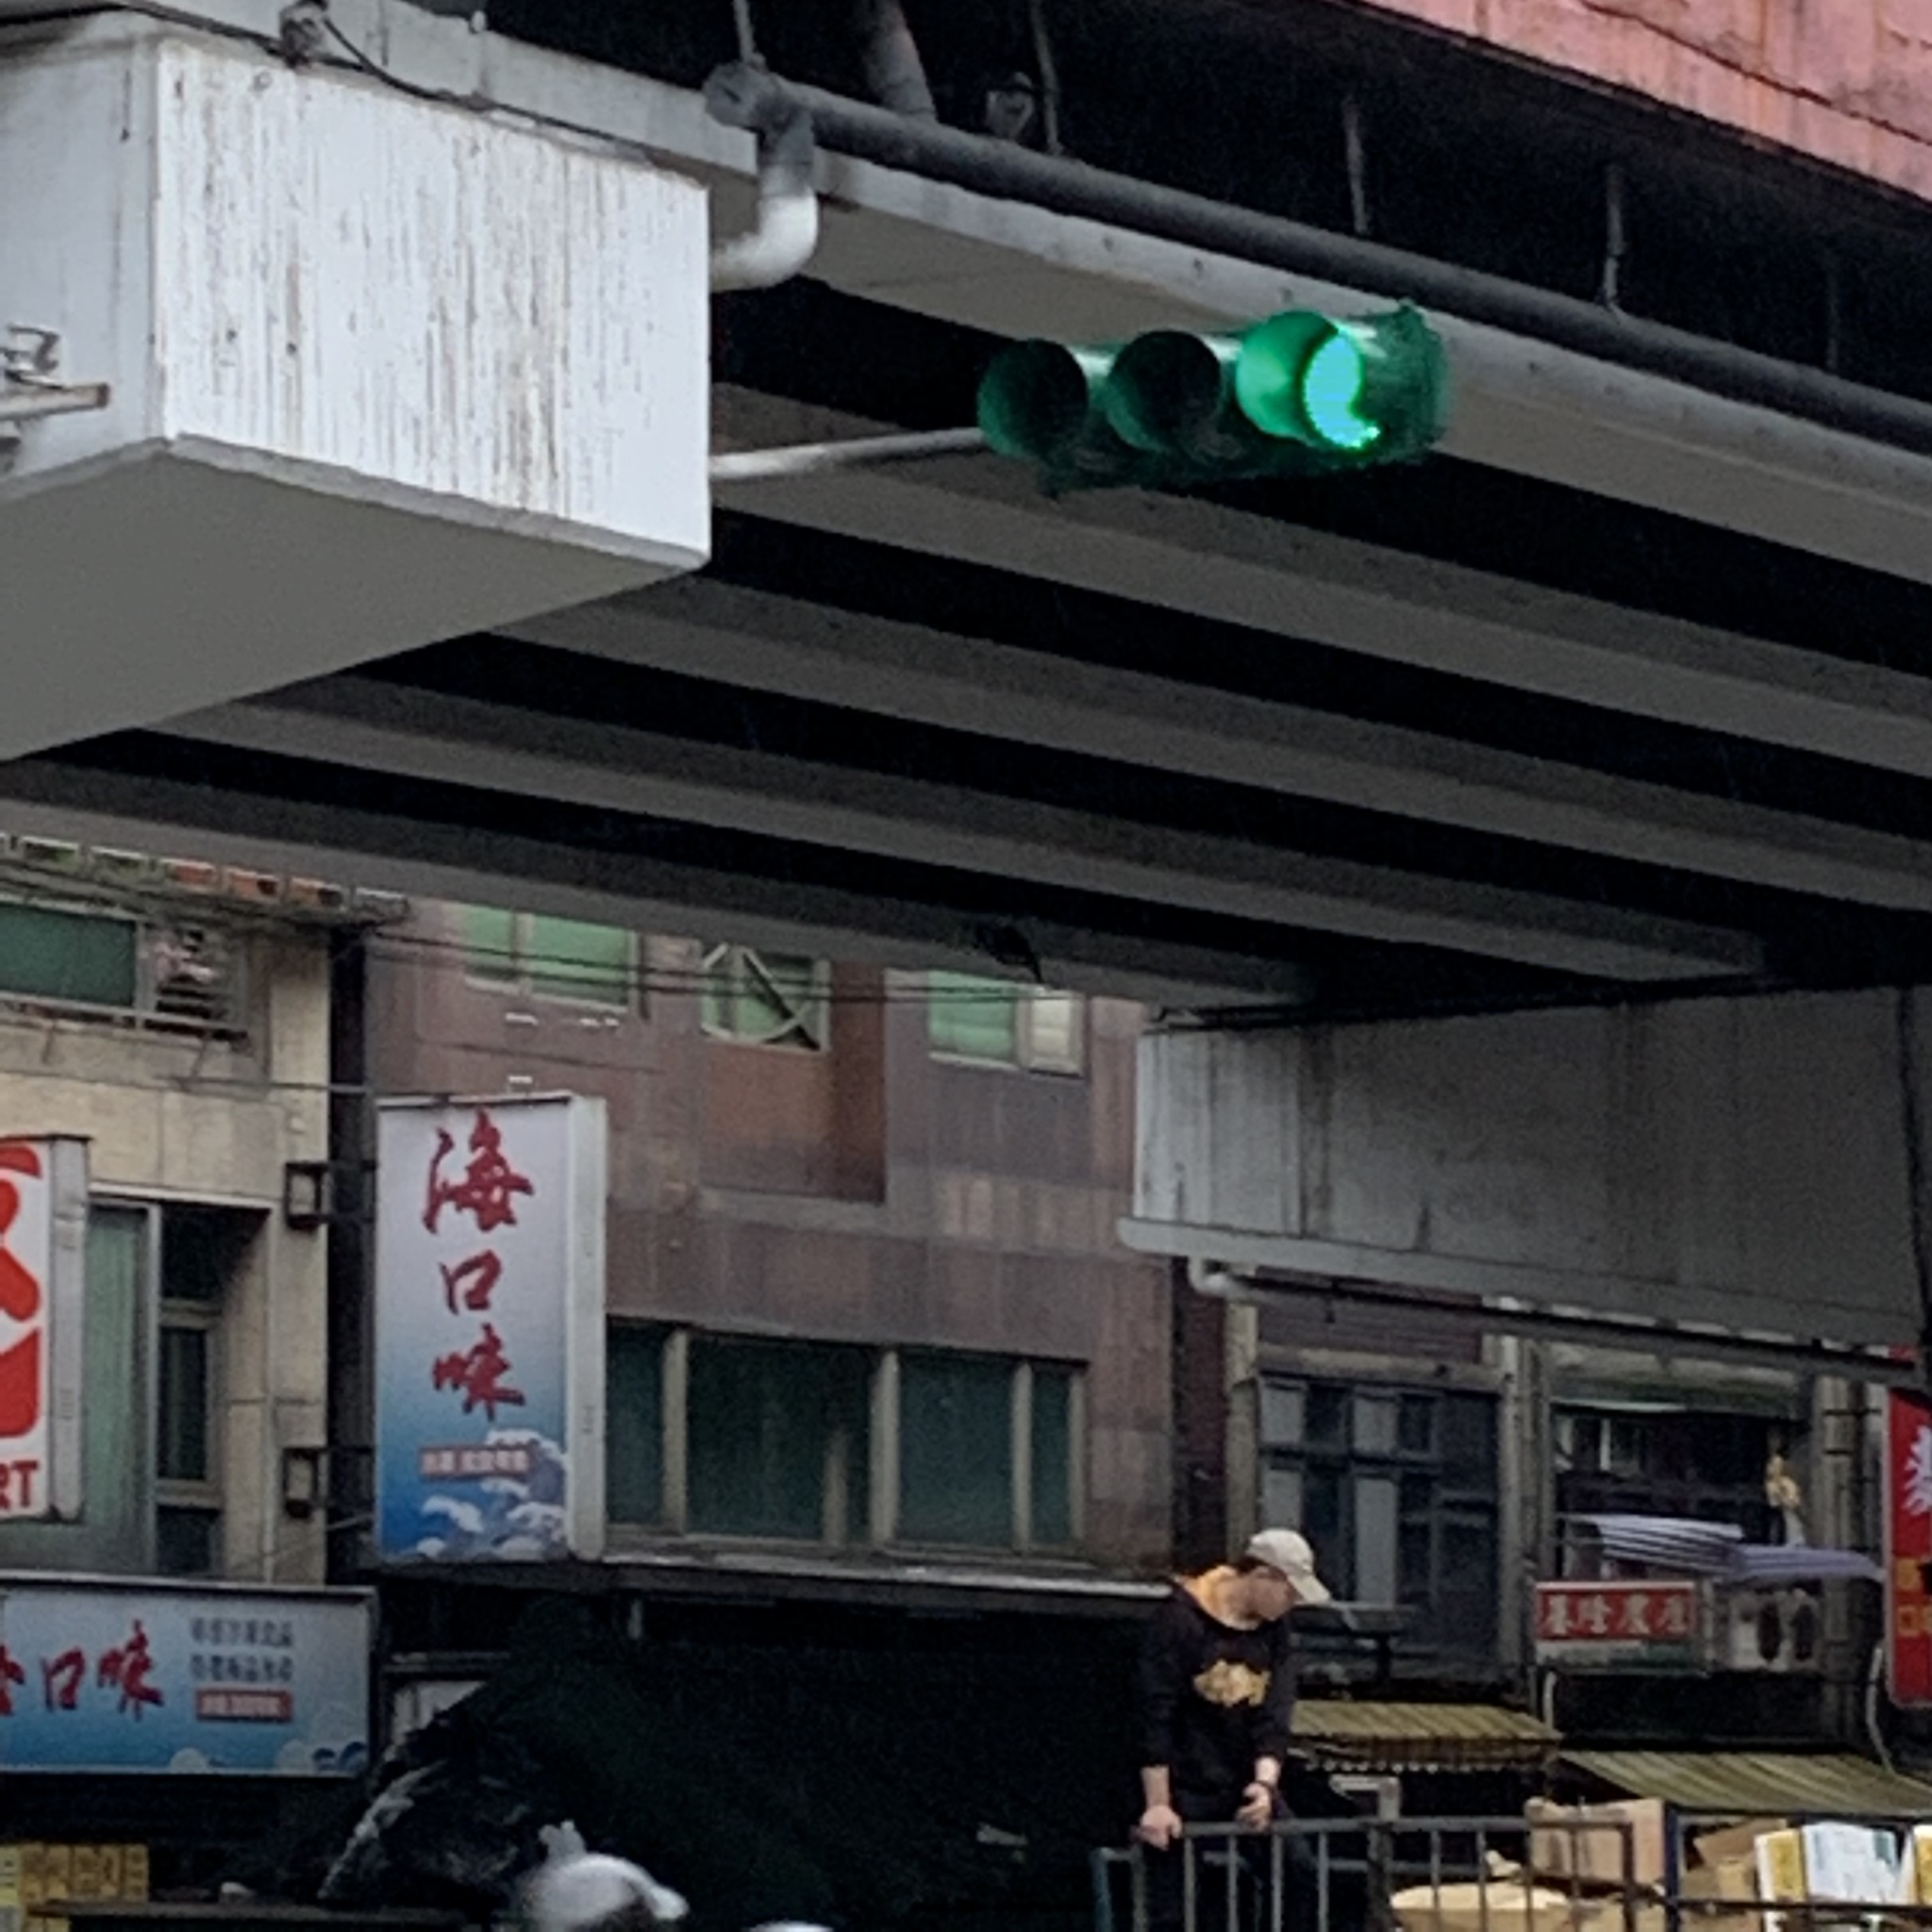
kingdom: Animalia
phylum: Chordata
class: Aves
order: Columbiformes
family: Columbidae
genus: Columba
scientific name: Columba livia
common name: Rock pigeon
